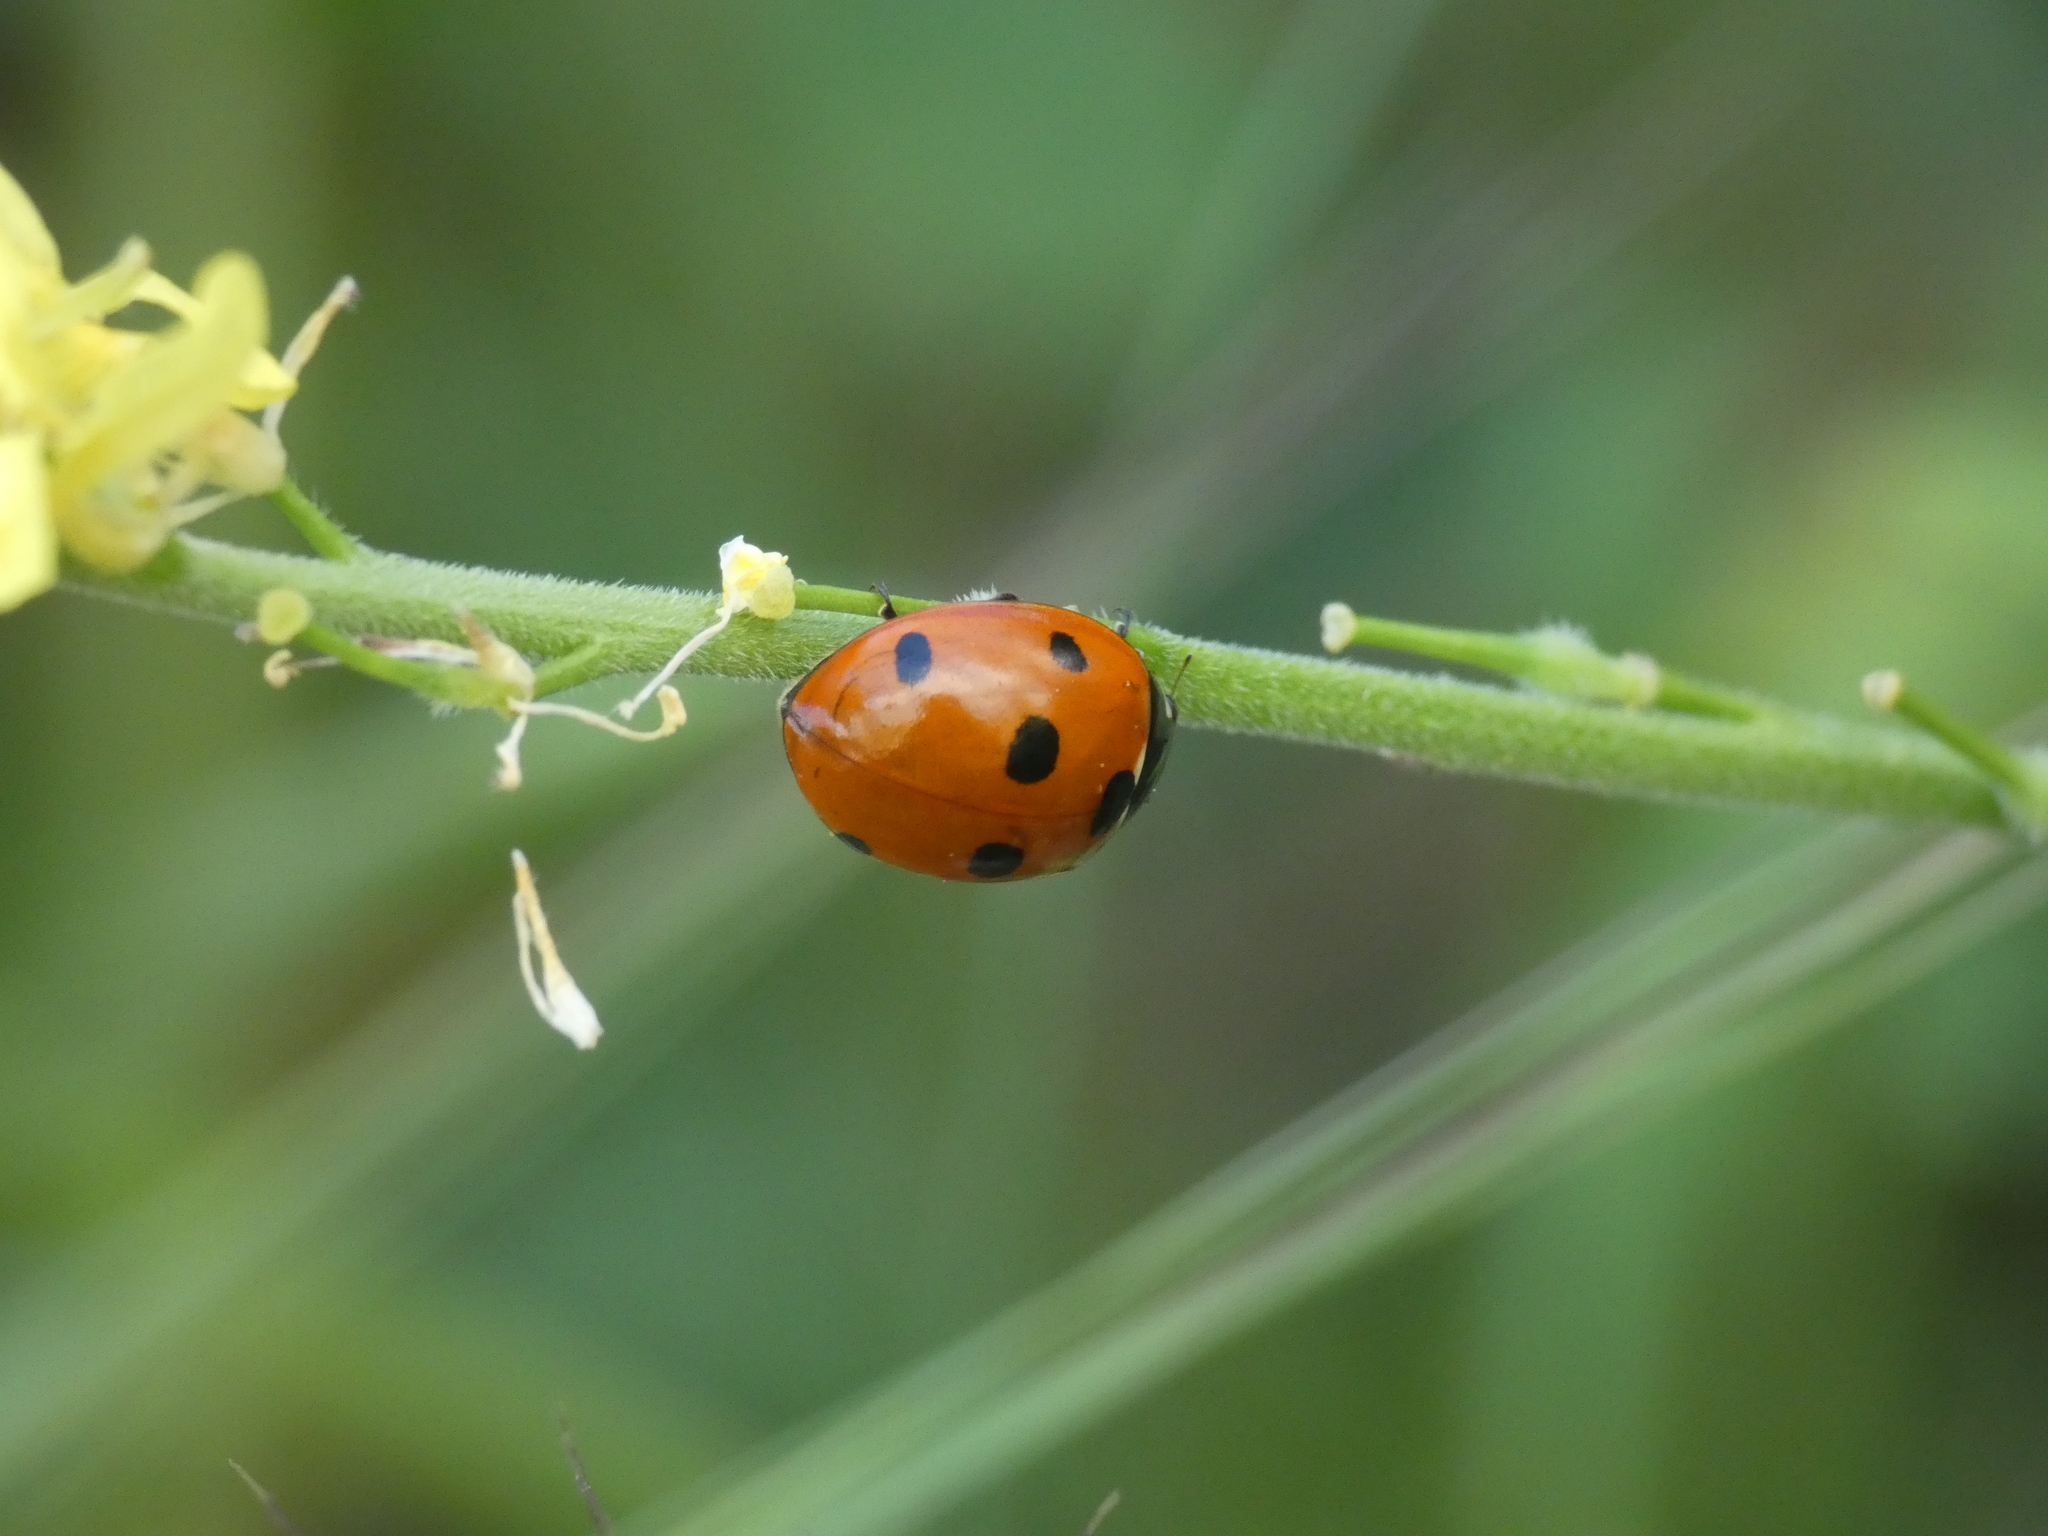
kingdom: Animalia
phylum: Arthropoda
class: Insecta
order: Coleoptera
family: Coccinellidae
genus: Coccinella
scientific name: Coccinella septempunctata
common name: Sevenspotted lady beetle
